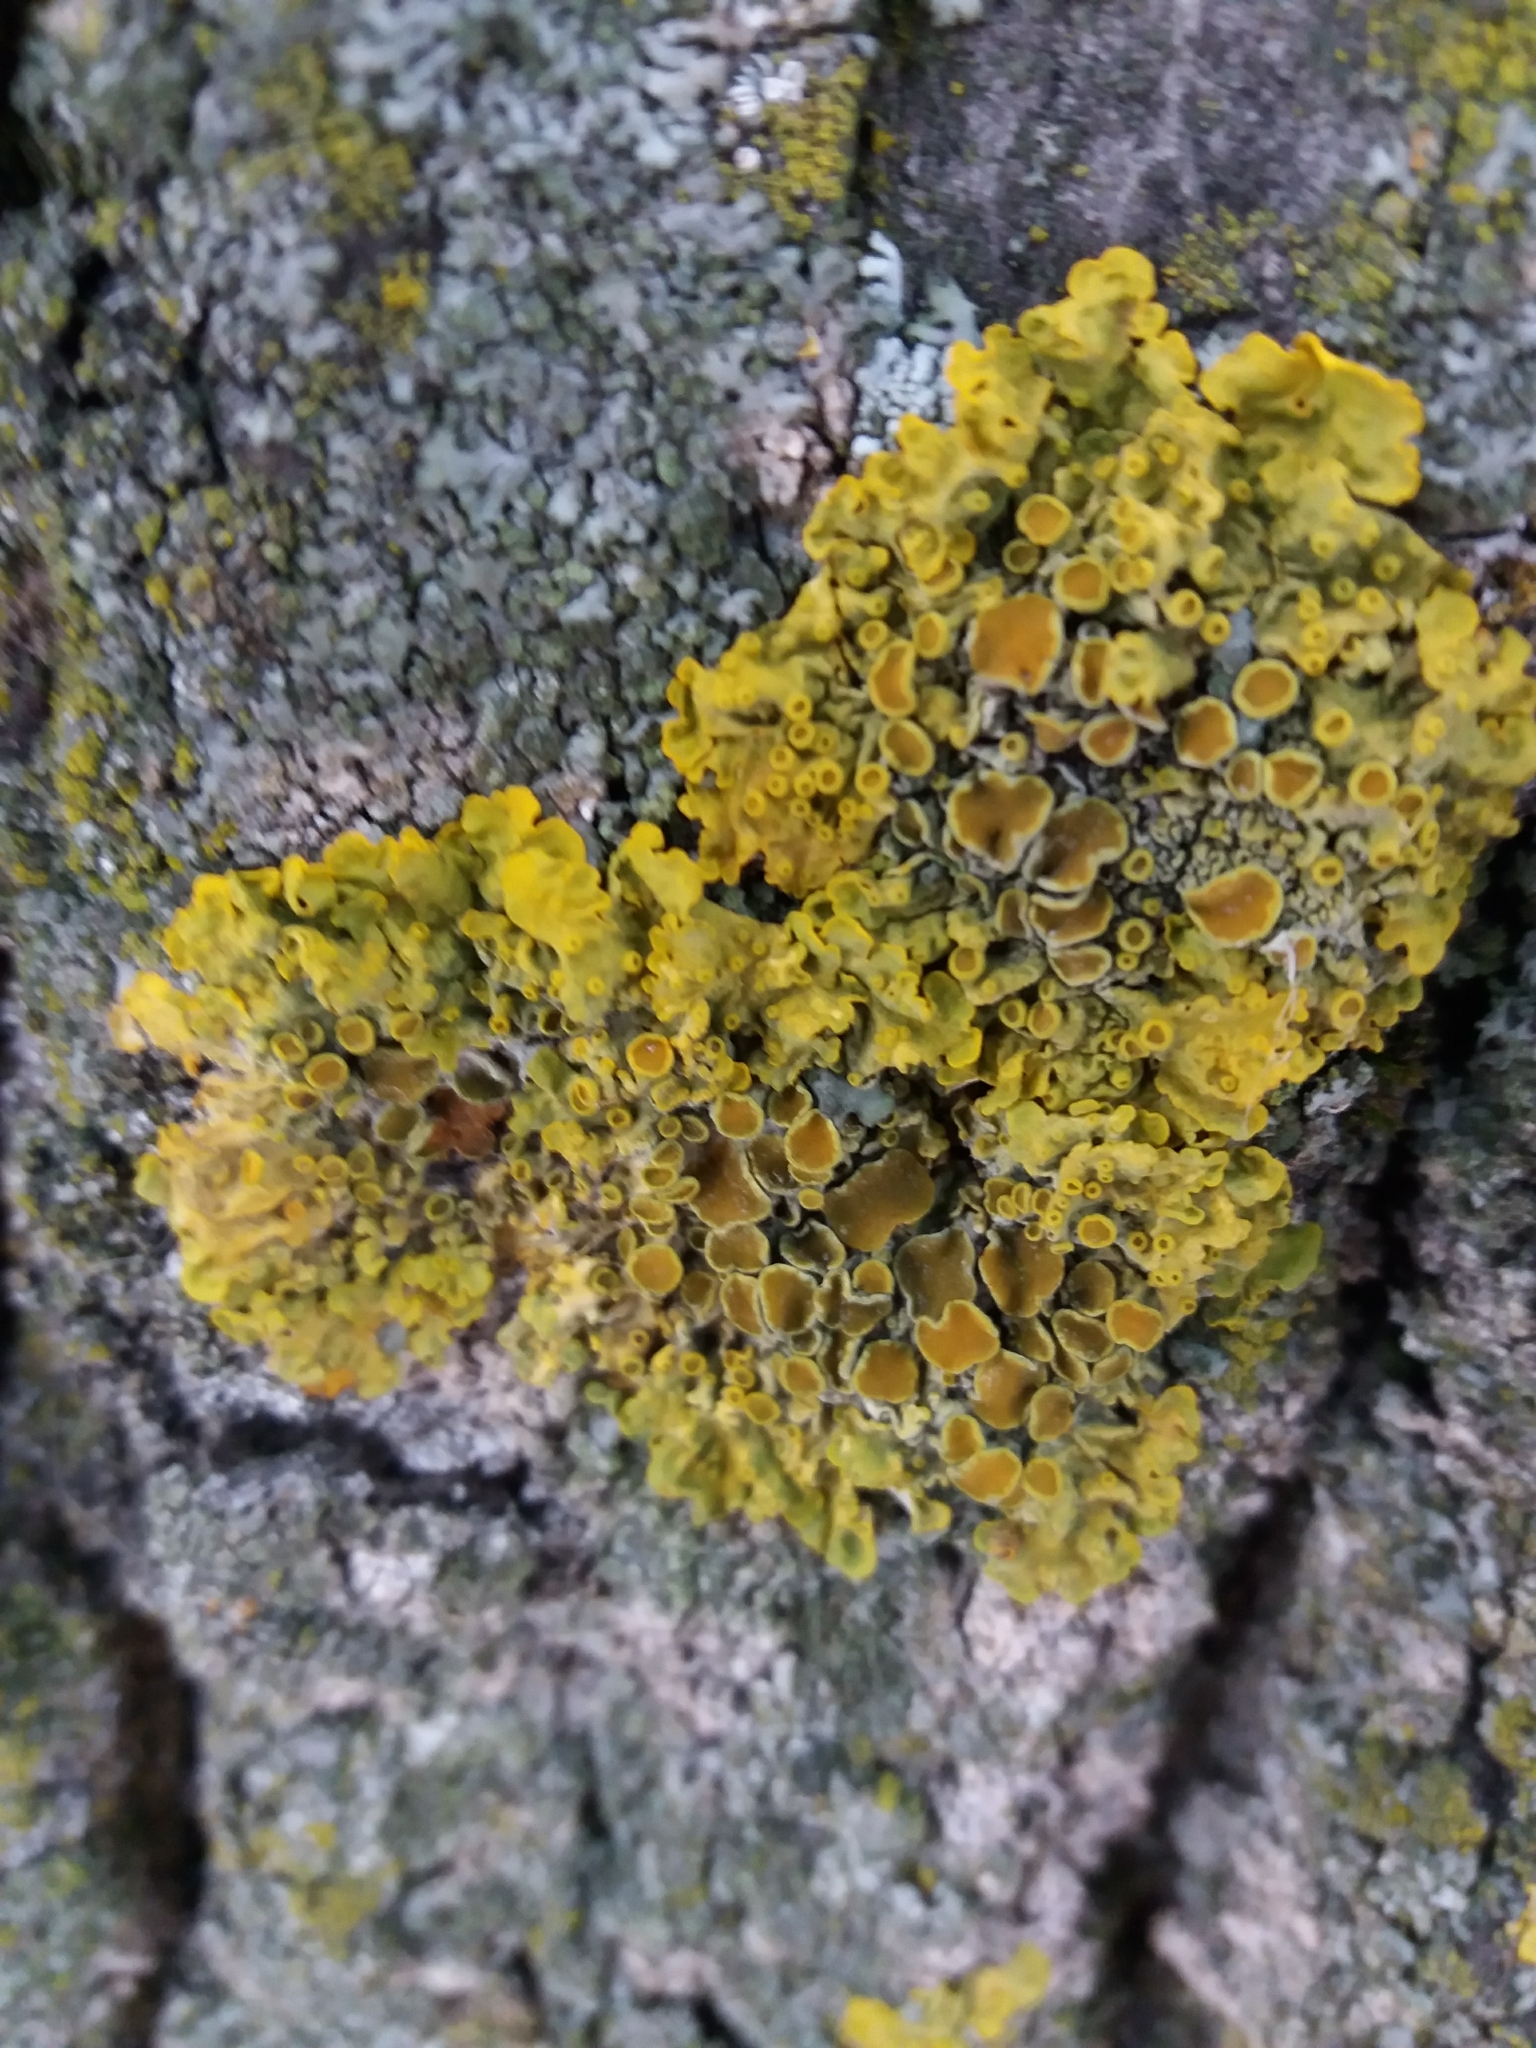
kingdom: Fungi
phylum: Ascomycota
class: Lecanoromycetes
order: Teloschistales
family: Teloschistaceae
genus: Xanthoria
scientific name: Xanthoria parietina
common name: Common orange lichen
